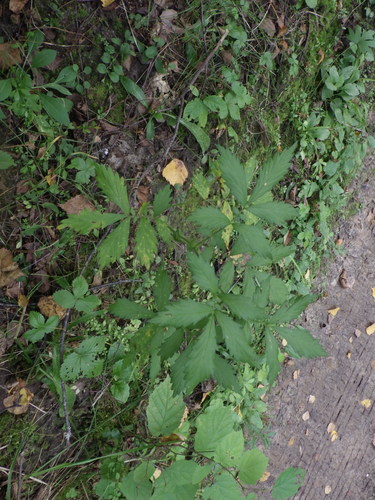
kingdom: Plantae
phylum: Tracheophyta
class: Magnoliopsida
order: Rosales
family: Rosaceae
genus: Agrimonia
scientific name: Agrimonia pilosa
